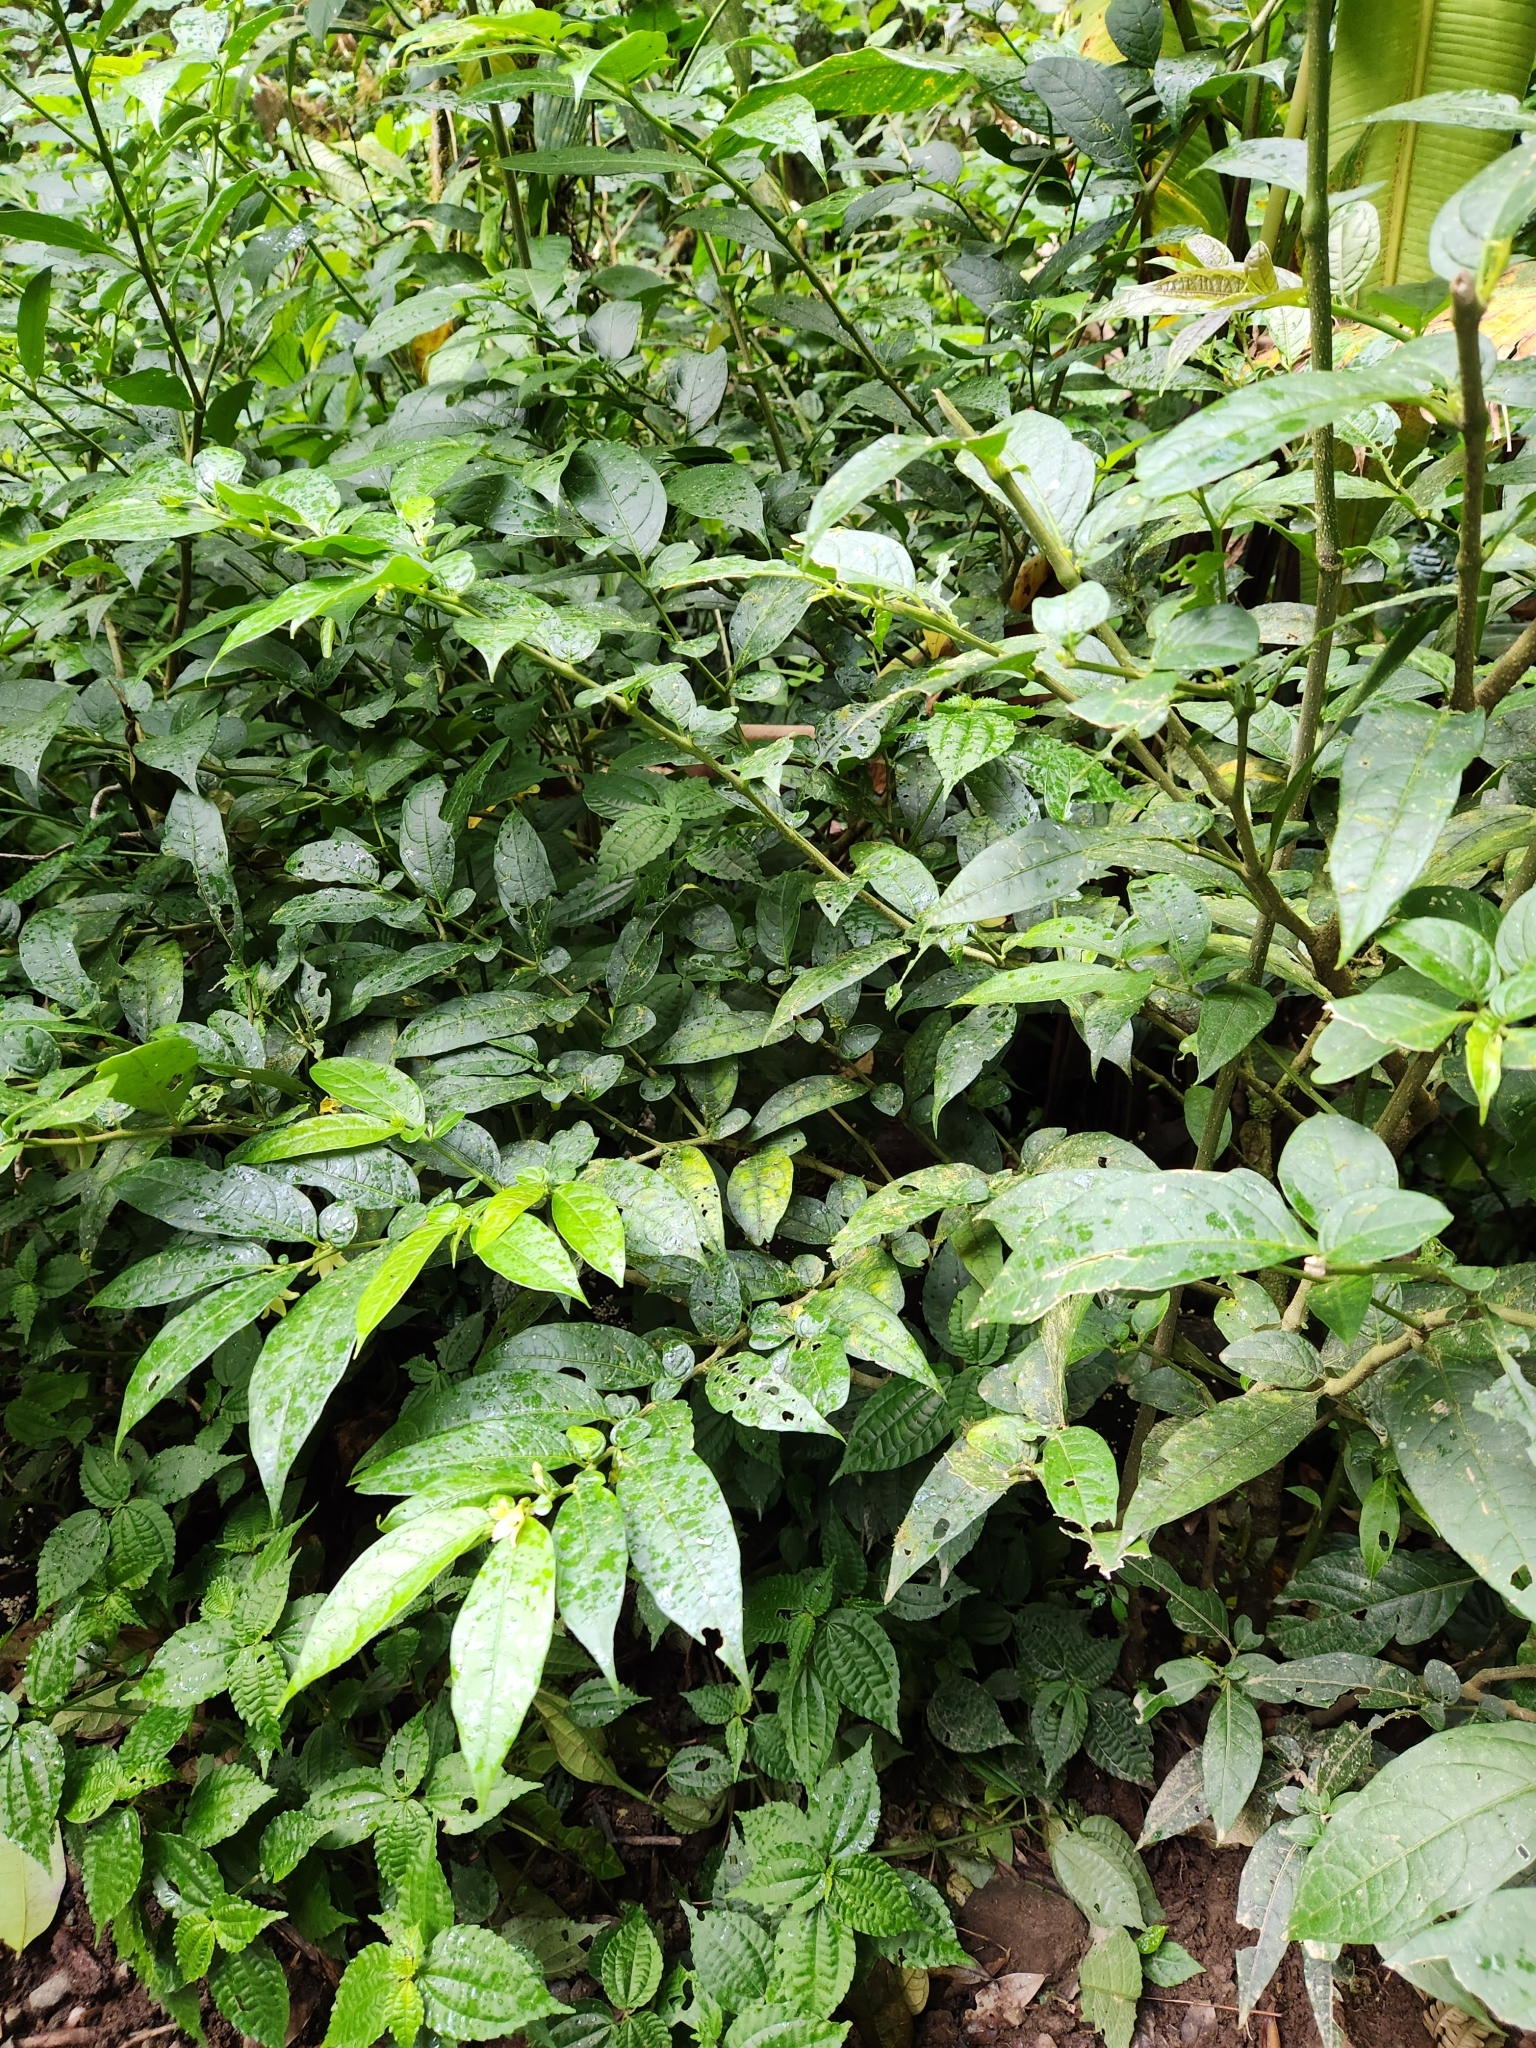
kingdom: Plantae
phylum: Tracheophyta
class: Magnoliopsida
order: Solanales
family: Solanaceae
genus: Cuatresia
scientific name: Cuatresia riparia
